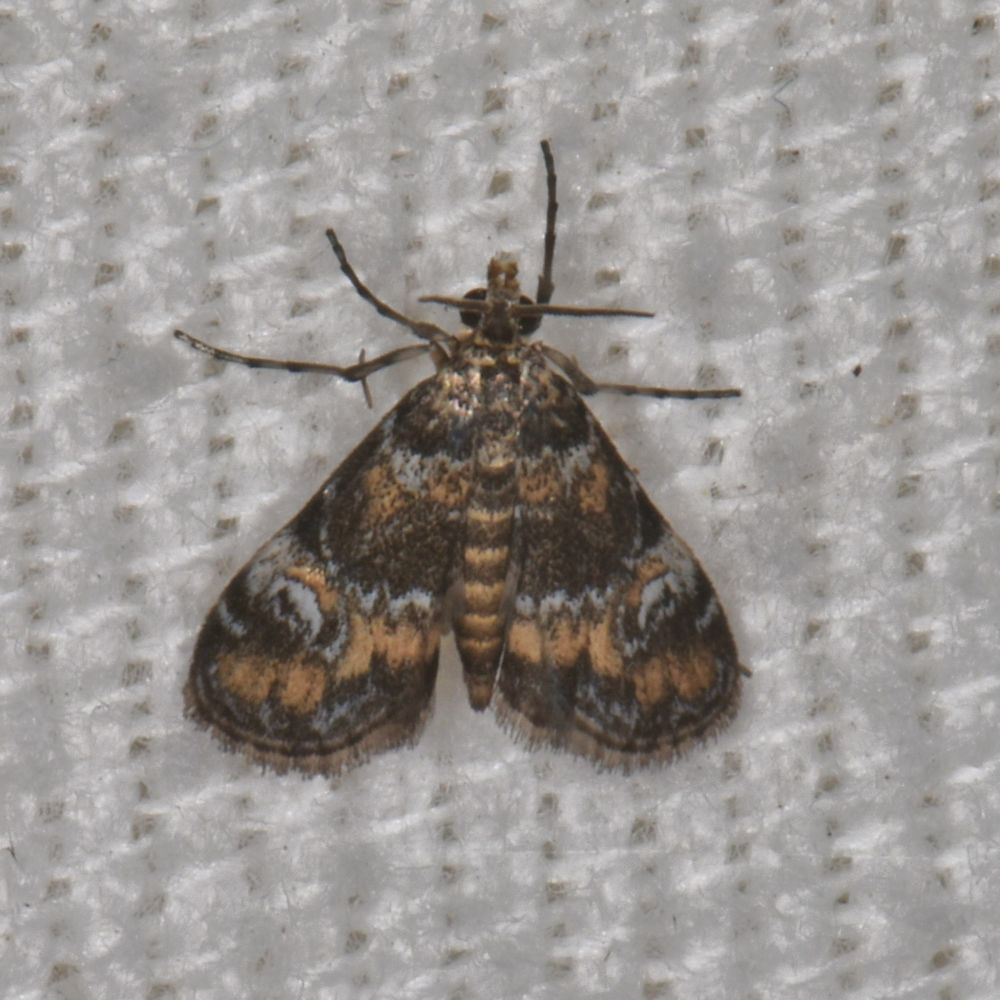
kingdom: Animalia
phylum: Arthropoda
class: Insecta
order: Lepidoptera
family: Crambidae
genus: Elophila
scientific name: Elophila obliteralis
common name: Waterlily leafcutter moth
